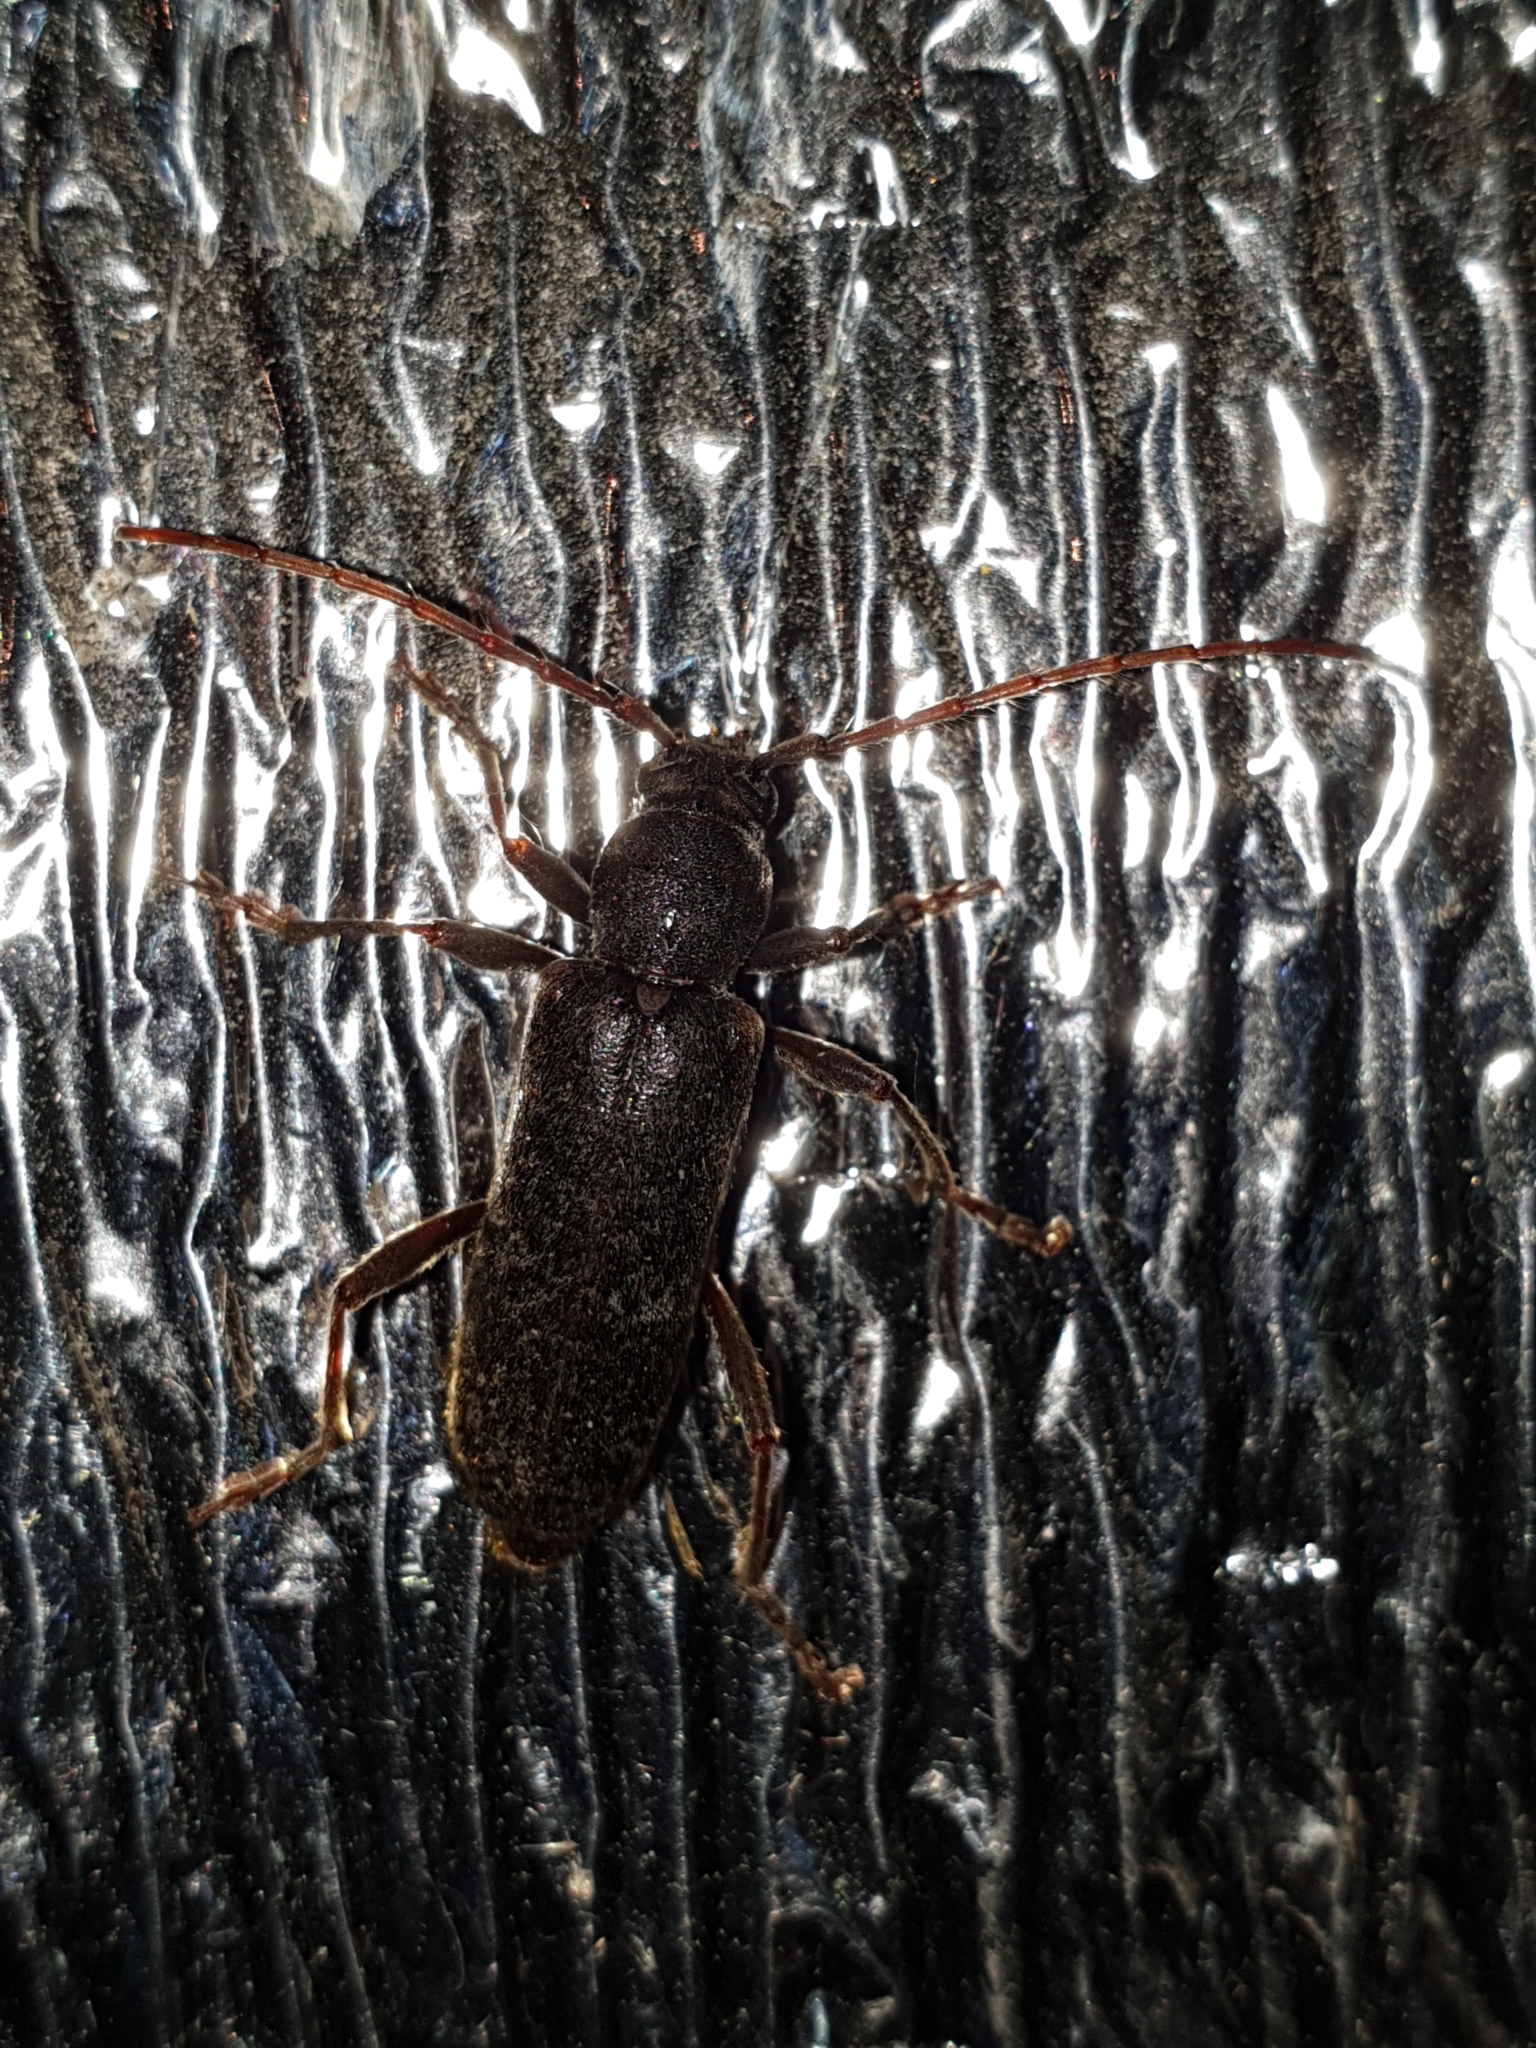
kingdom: Animalia
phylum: Arthropoda
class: Insecta
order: Coleoptera
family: Cerambycidae
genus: Trichoferus
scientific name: Trichoferus campestris
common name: Velvet long horned beetle
